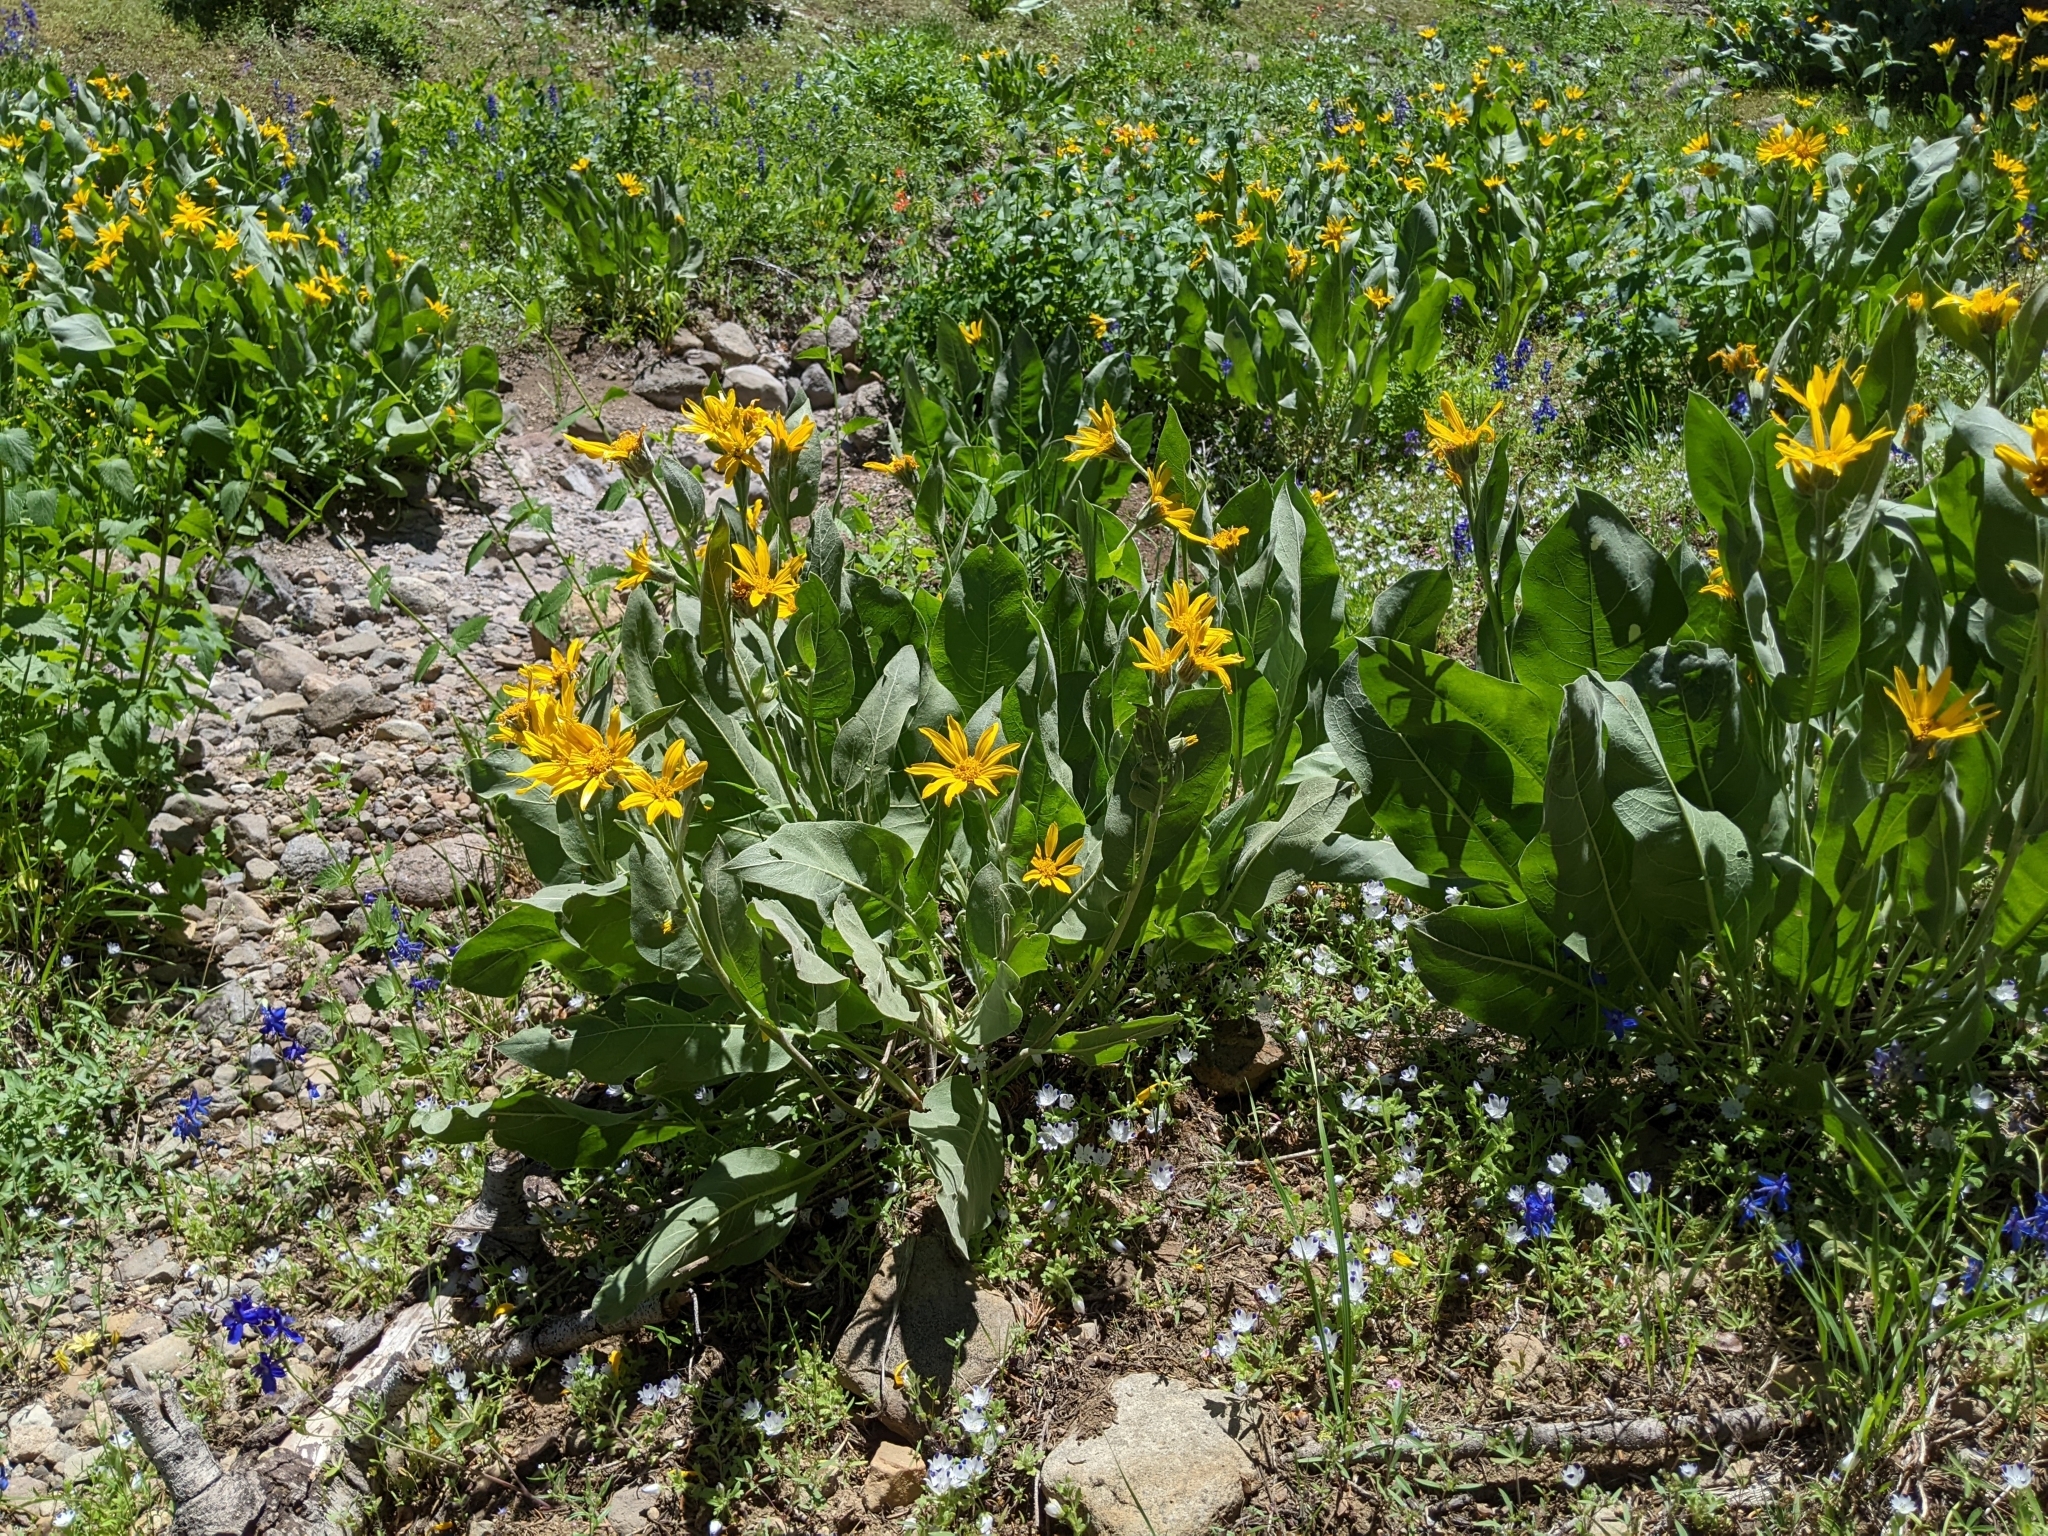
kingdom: Plantae
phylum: Tracheophyta
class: Magnoliopsida
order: Asterales
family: Asteraceae
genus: Wyethia
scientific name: Wyethia mollis
